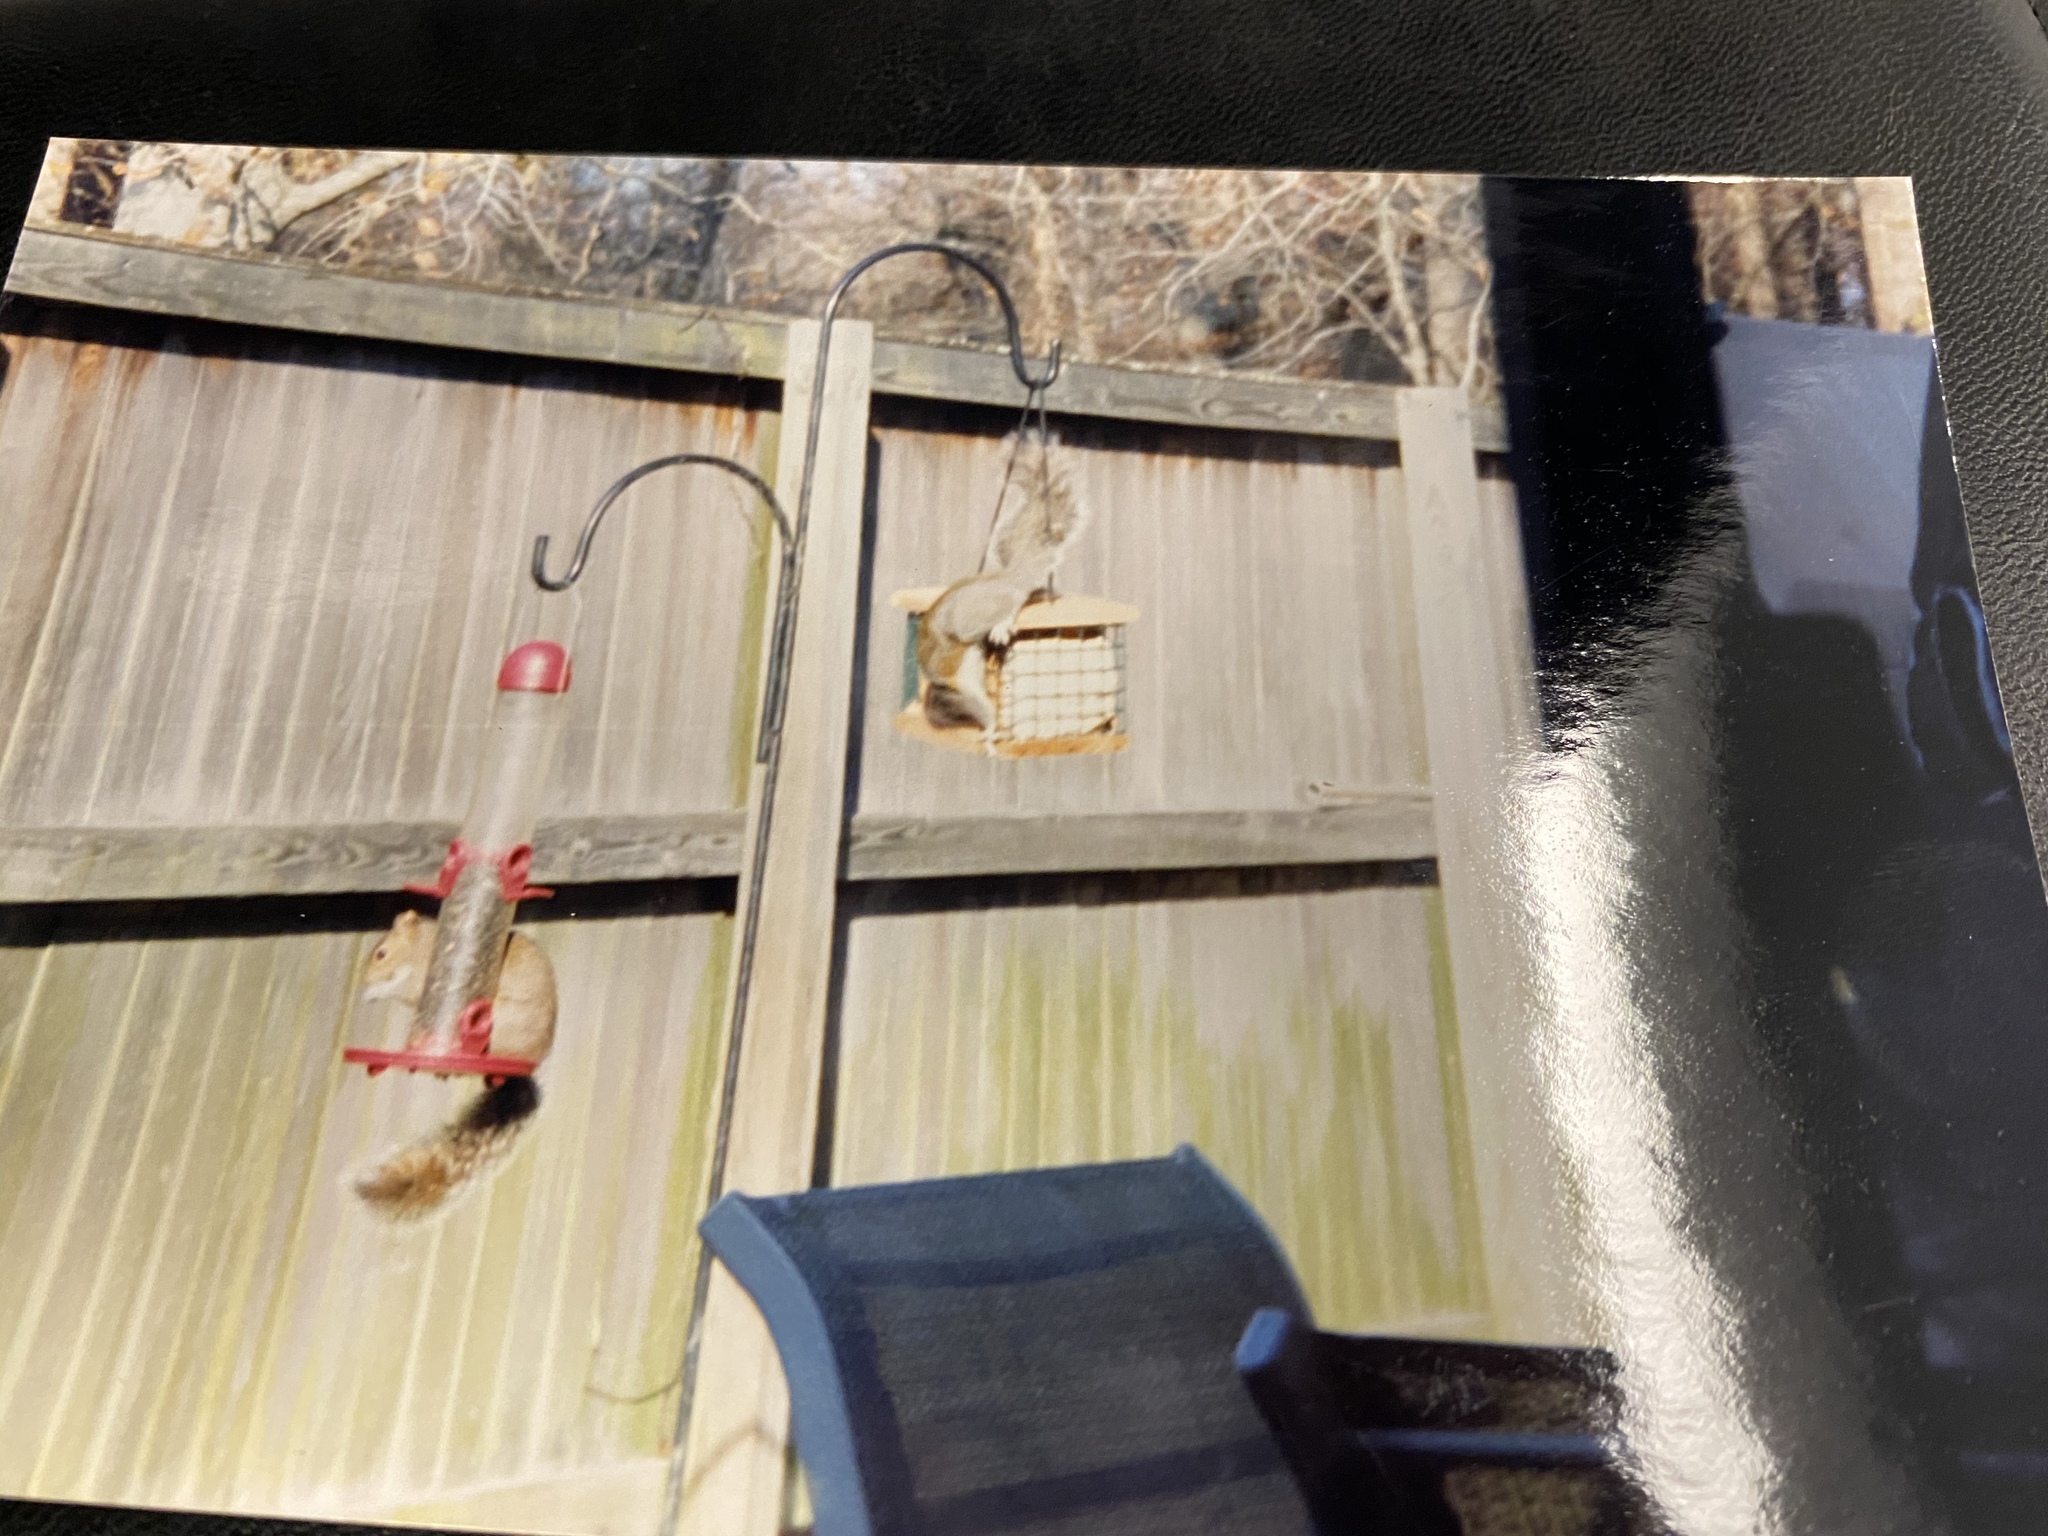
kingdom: Animalia
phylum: Chordata
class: Mammalia
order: Rodentia
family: Sciuridae
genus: Sciurus
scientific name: Sciurus carolinensis
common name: Eastern gray squirrel
